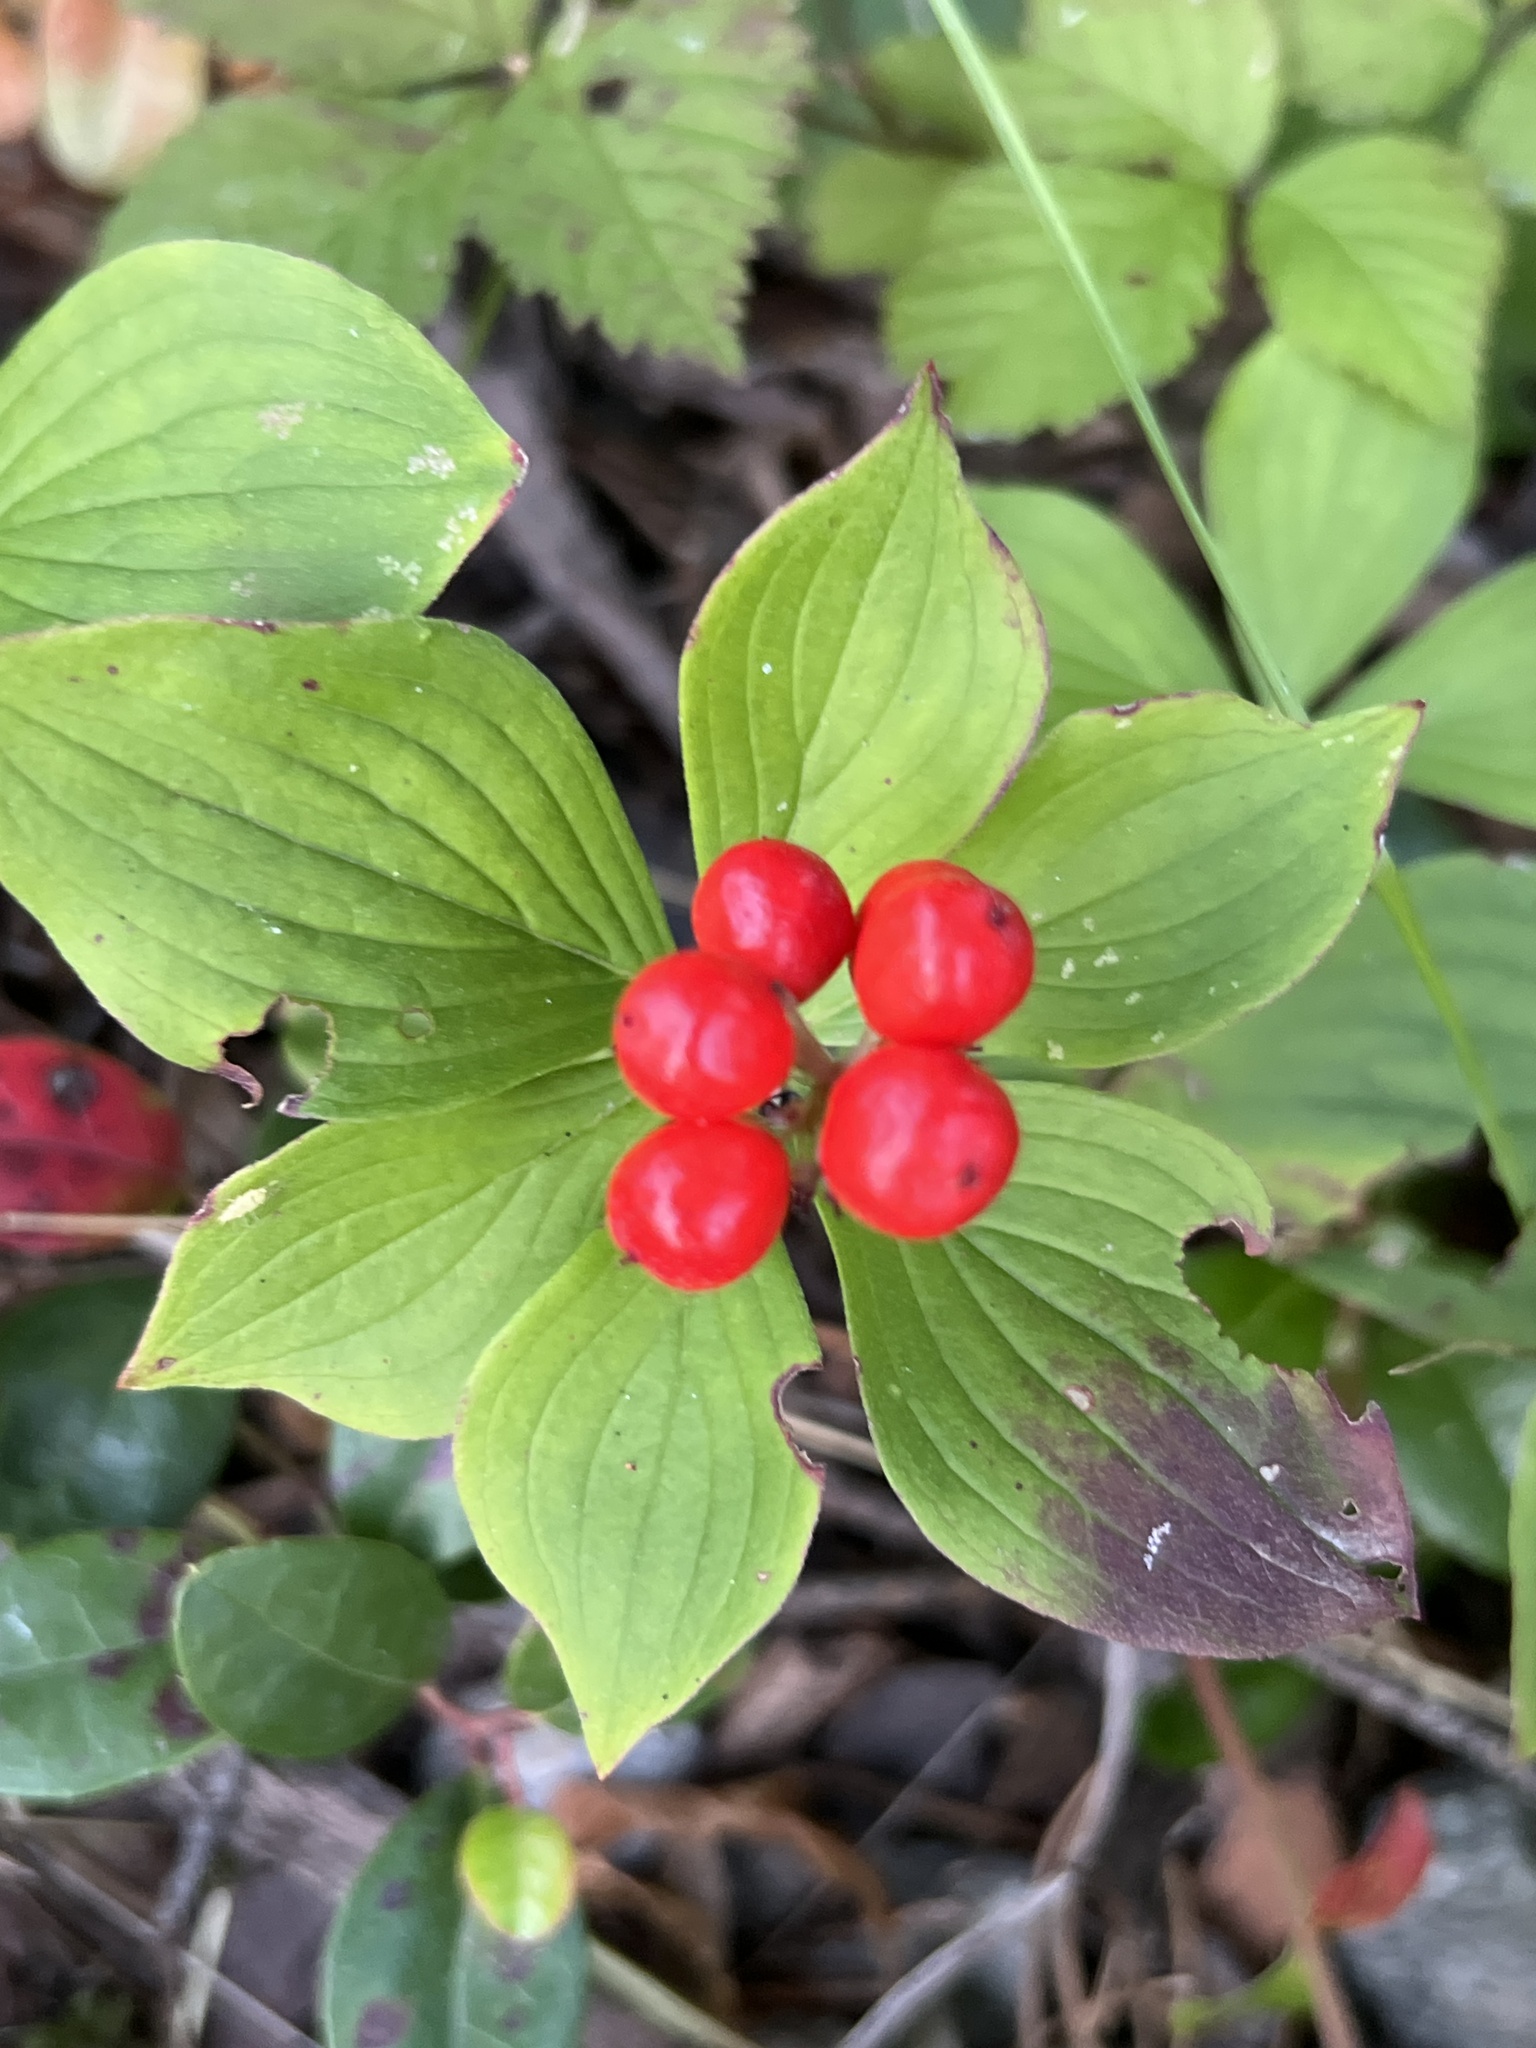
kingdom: Plantae
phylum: Tracheophyta
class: Magnoliopsida
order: Cornales
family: Cornaceae
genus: Cornus
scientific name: Cornus canadensis
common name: Creeping dogwood
